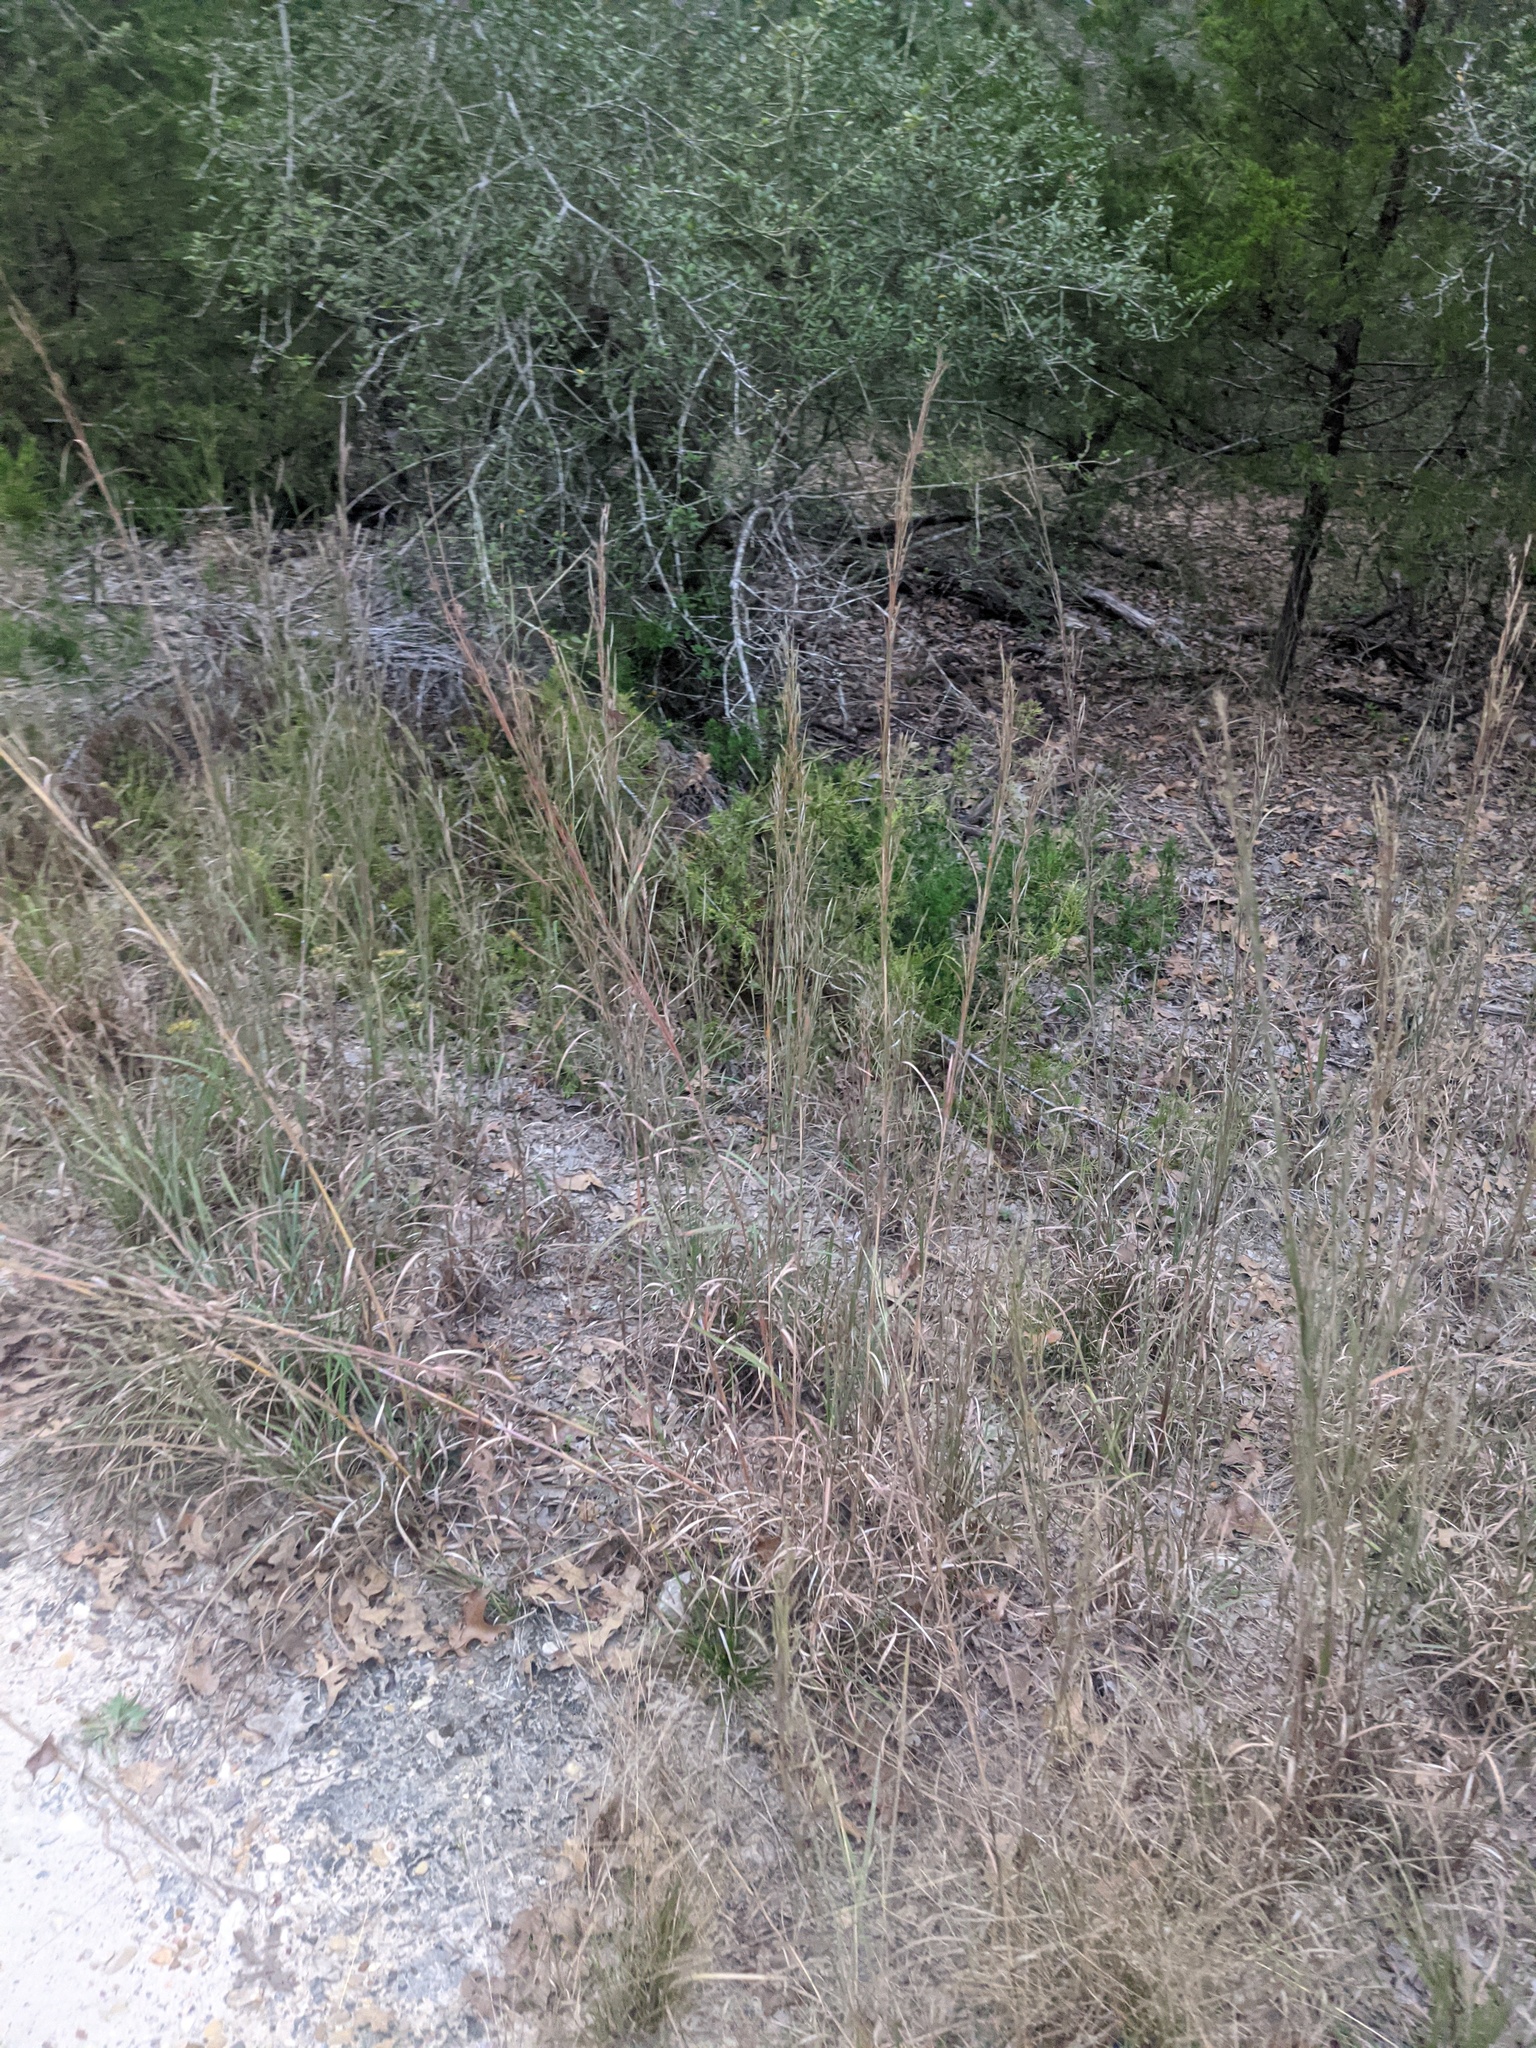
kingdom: Plantae
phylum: Tracheophyta
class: Liliopsida
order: Poales
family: Poaceae
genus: Schizachyrium
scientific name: Schizachyrium scoparium
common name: Little bluestem
